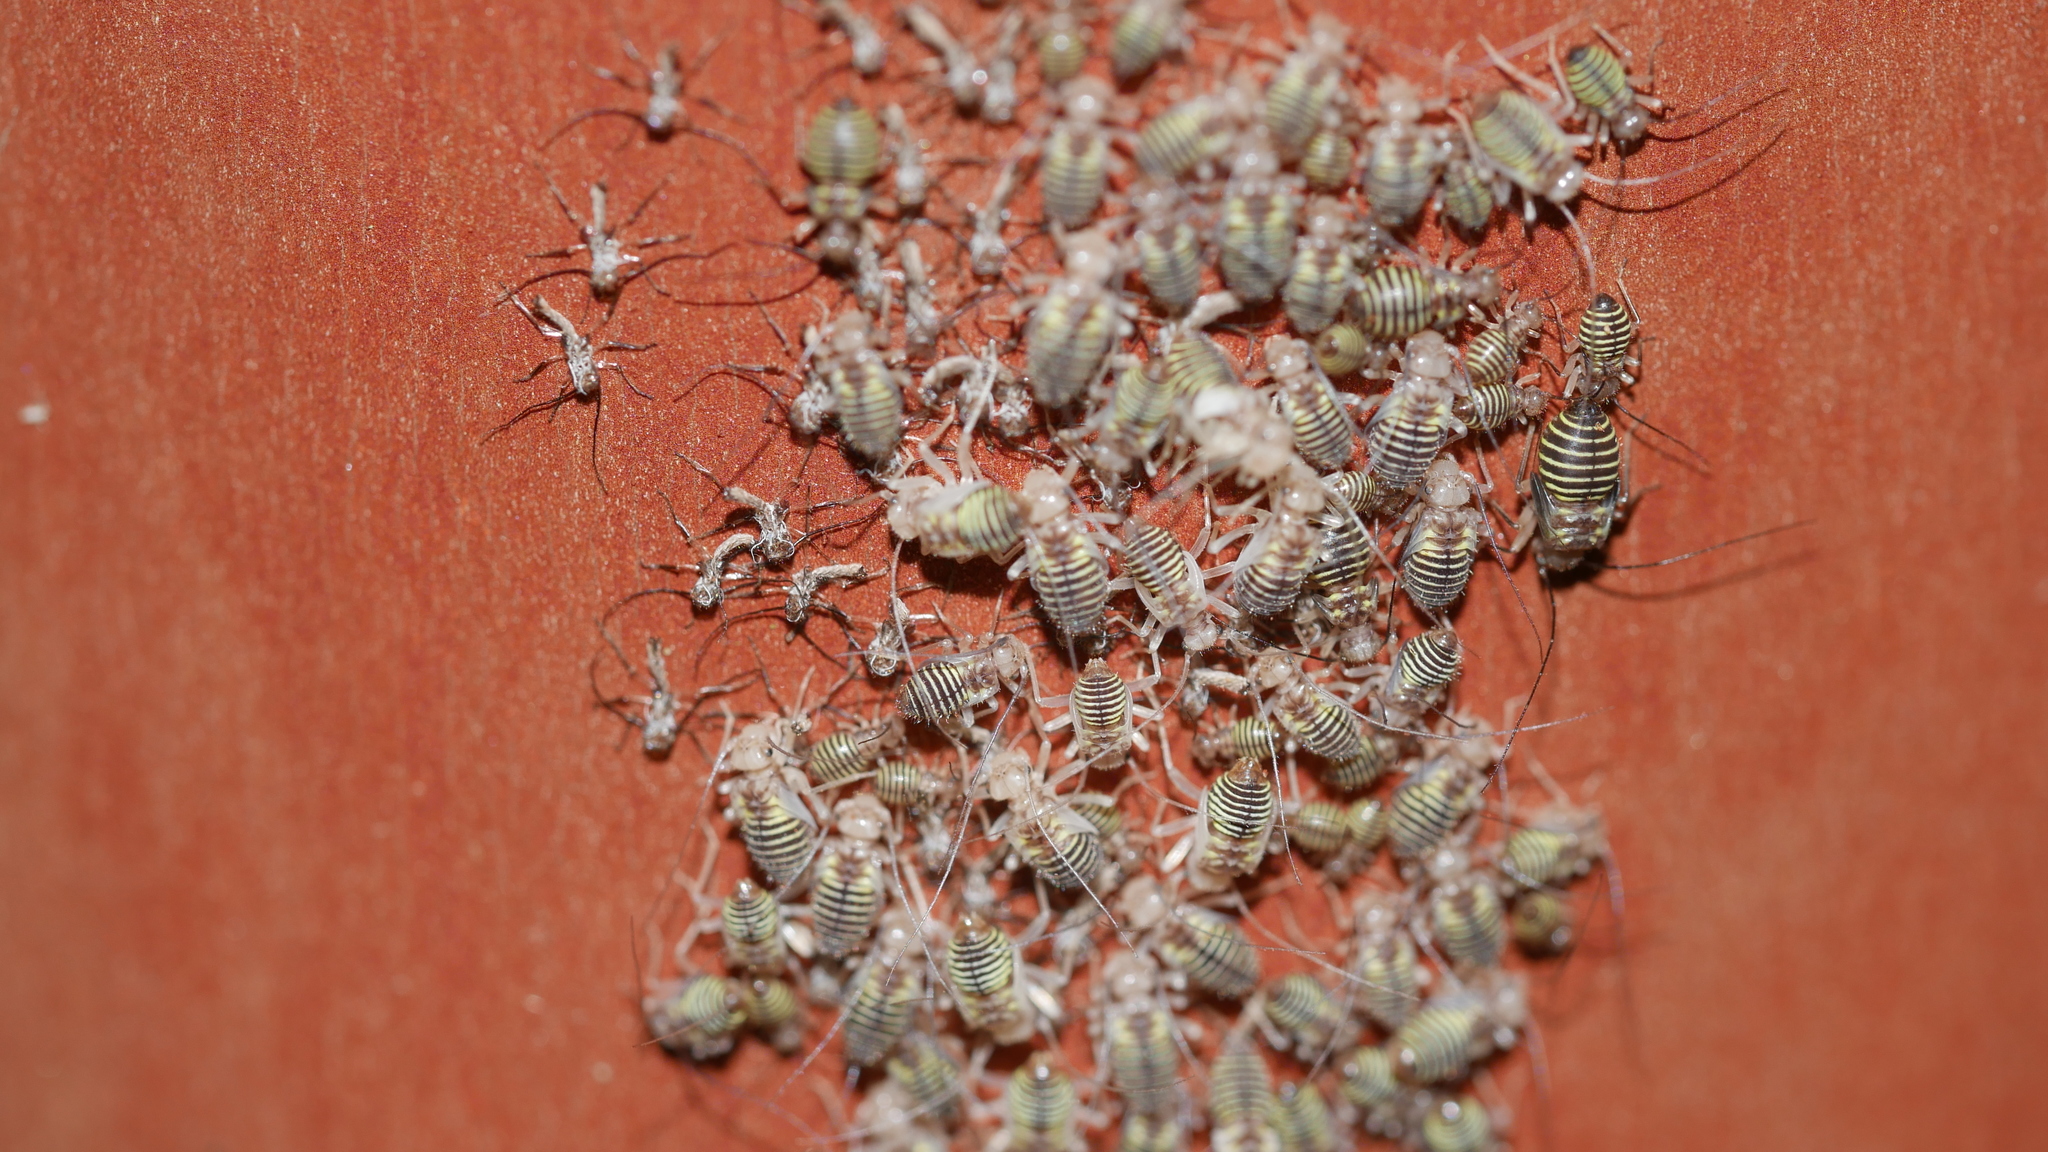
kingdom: Animalia
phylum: Arthropoda
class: Insecta
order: Psocodea
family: Psocidae
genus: Cerastipsocus
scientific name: Cerastipsocus venosus
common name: Tree cattle
